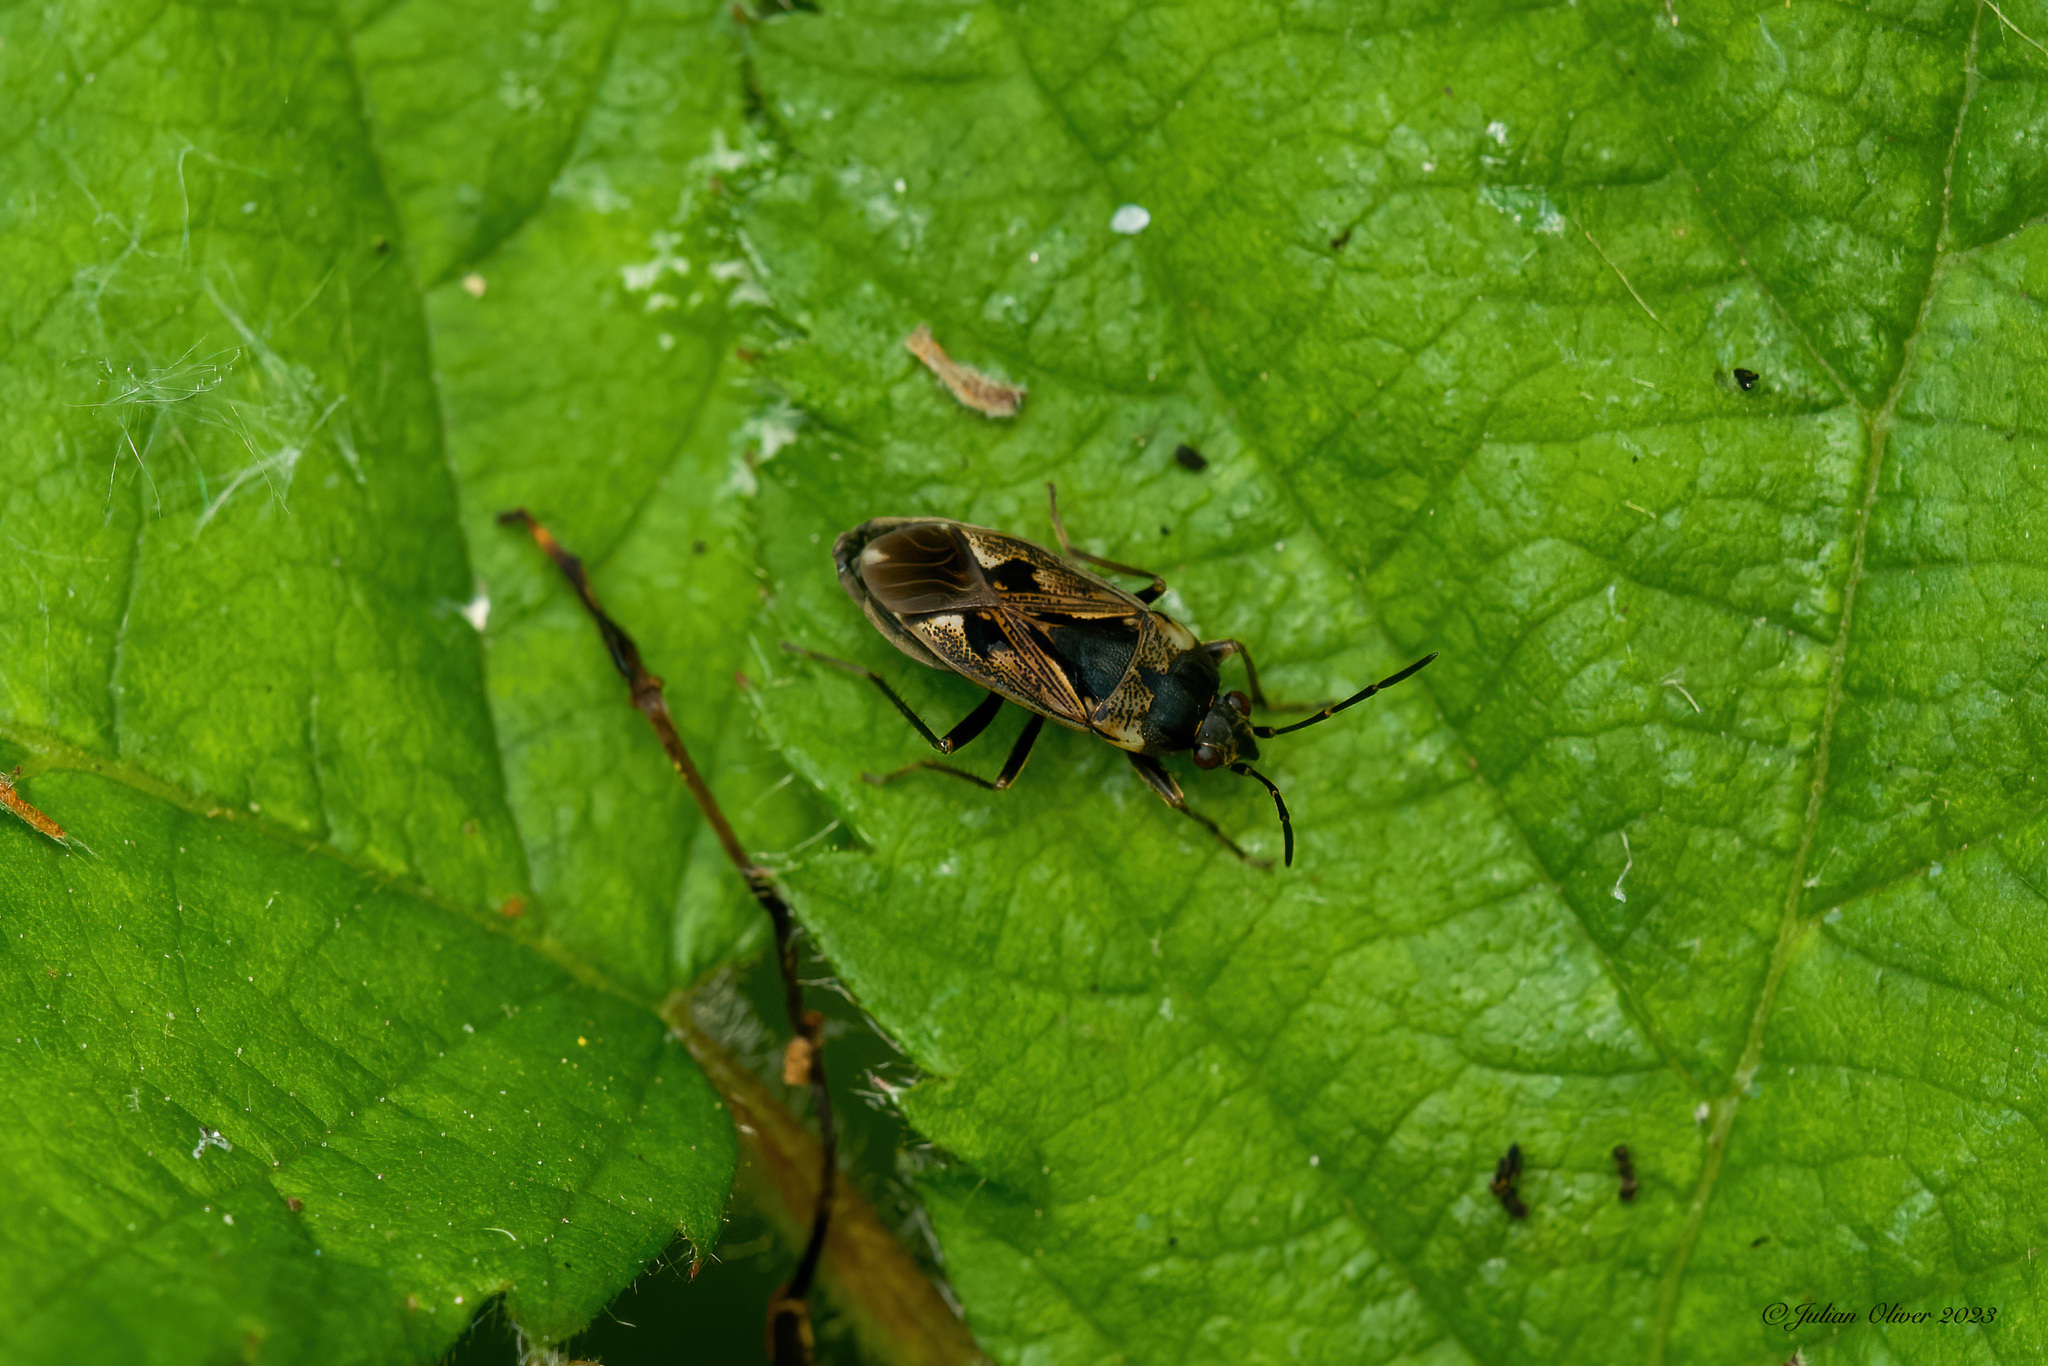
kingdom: Animalia
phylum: Arthropoda
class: Insecta
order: Hemiptera
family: Rhyparochromidae
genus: Rhyparochromus
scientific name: Rhyparochromus vulgaris
